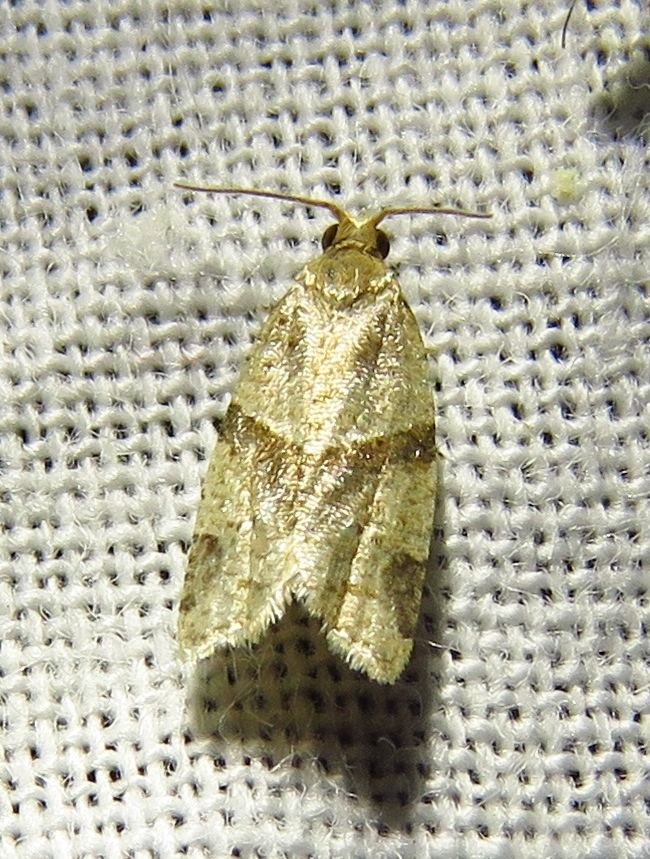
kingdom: Animalia
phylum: Arthropoda
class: Insecta
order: Lepidoptera
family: Tortricidae
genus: Clepsis
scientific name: Clepsis peritana
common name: Garden tortrix
